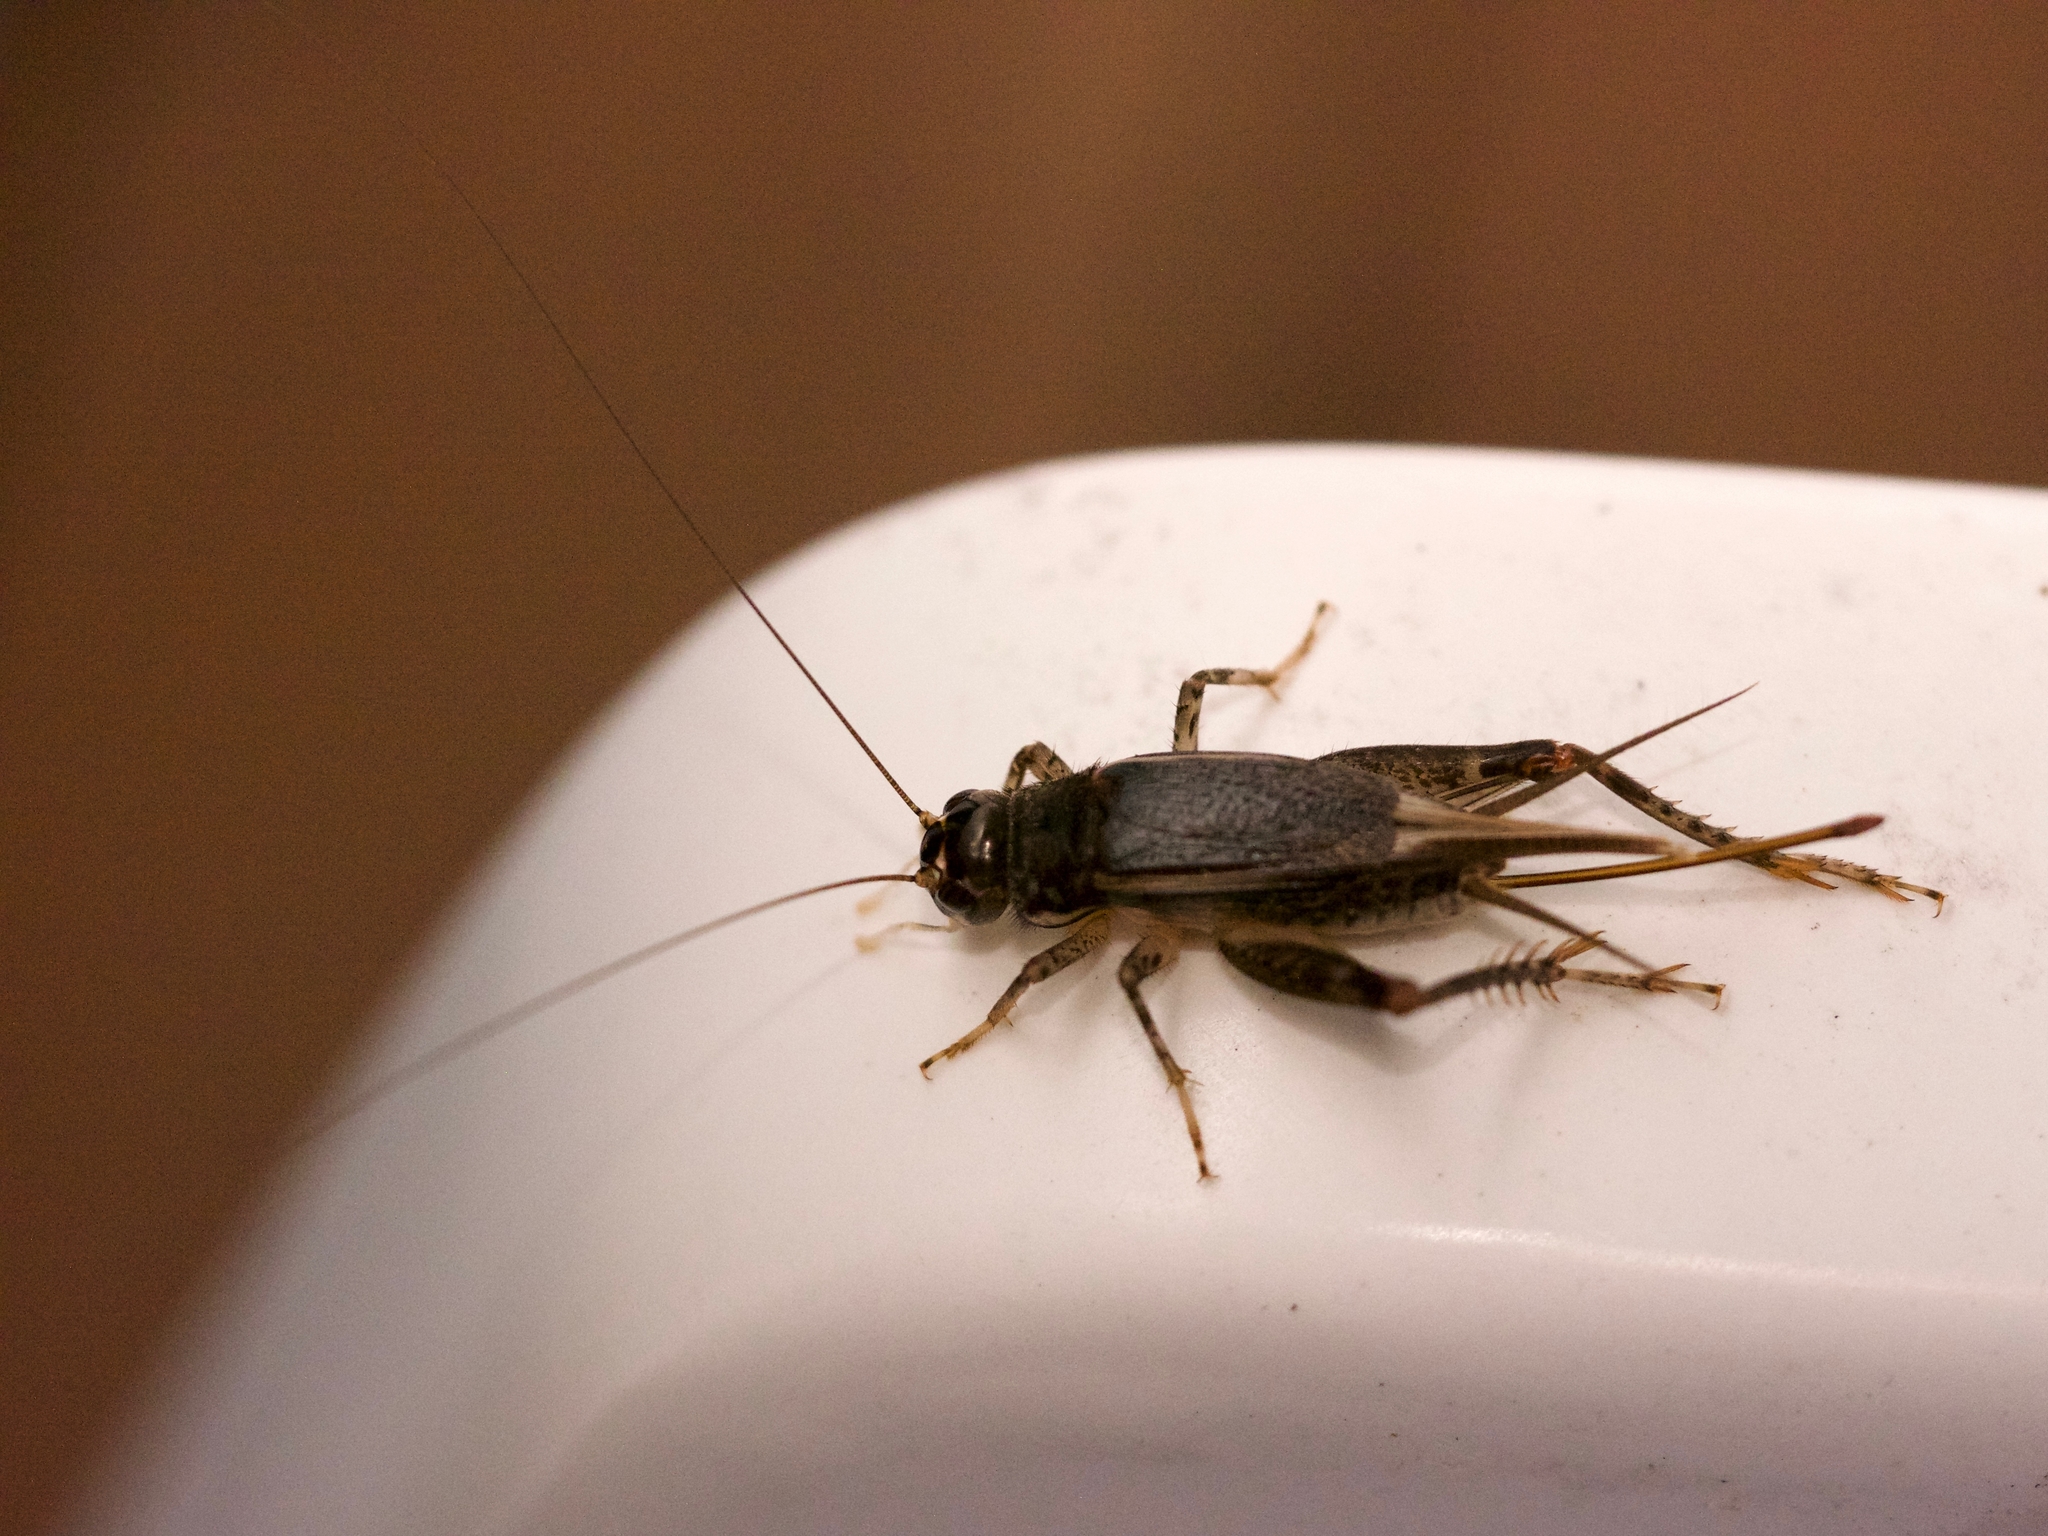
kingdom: Animalia
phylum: Arthropoda
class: Insecta
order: Orthoptera
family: Gryllidae
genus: Velarifictorus
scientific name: Velarifictorus micado
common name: Japanese burrowing cricket
